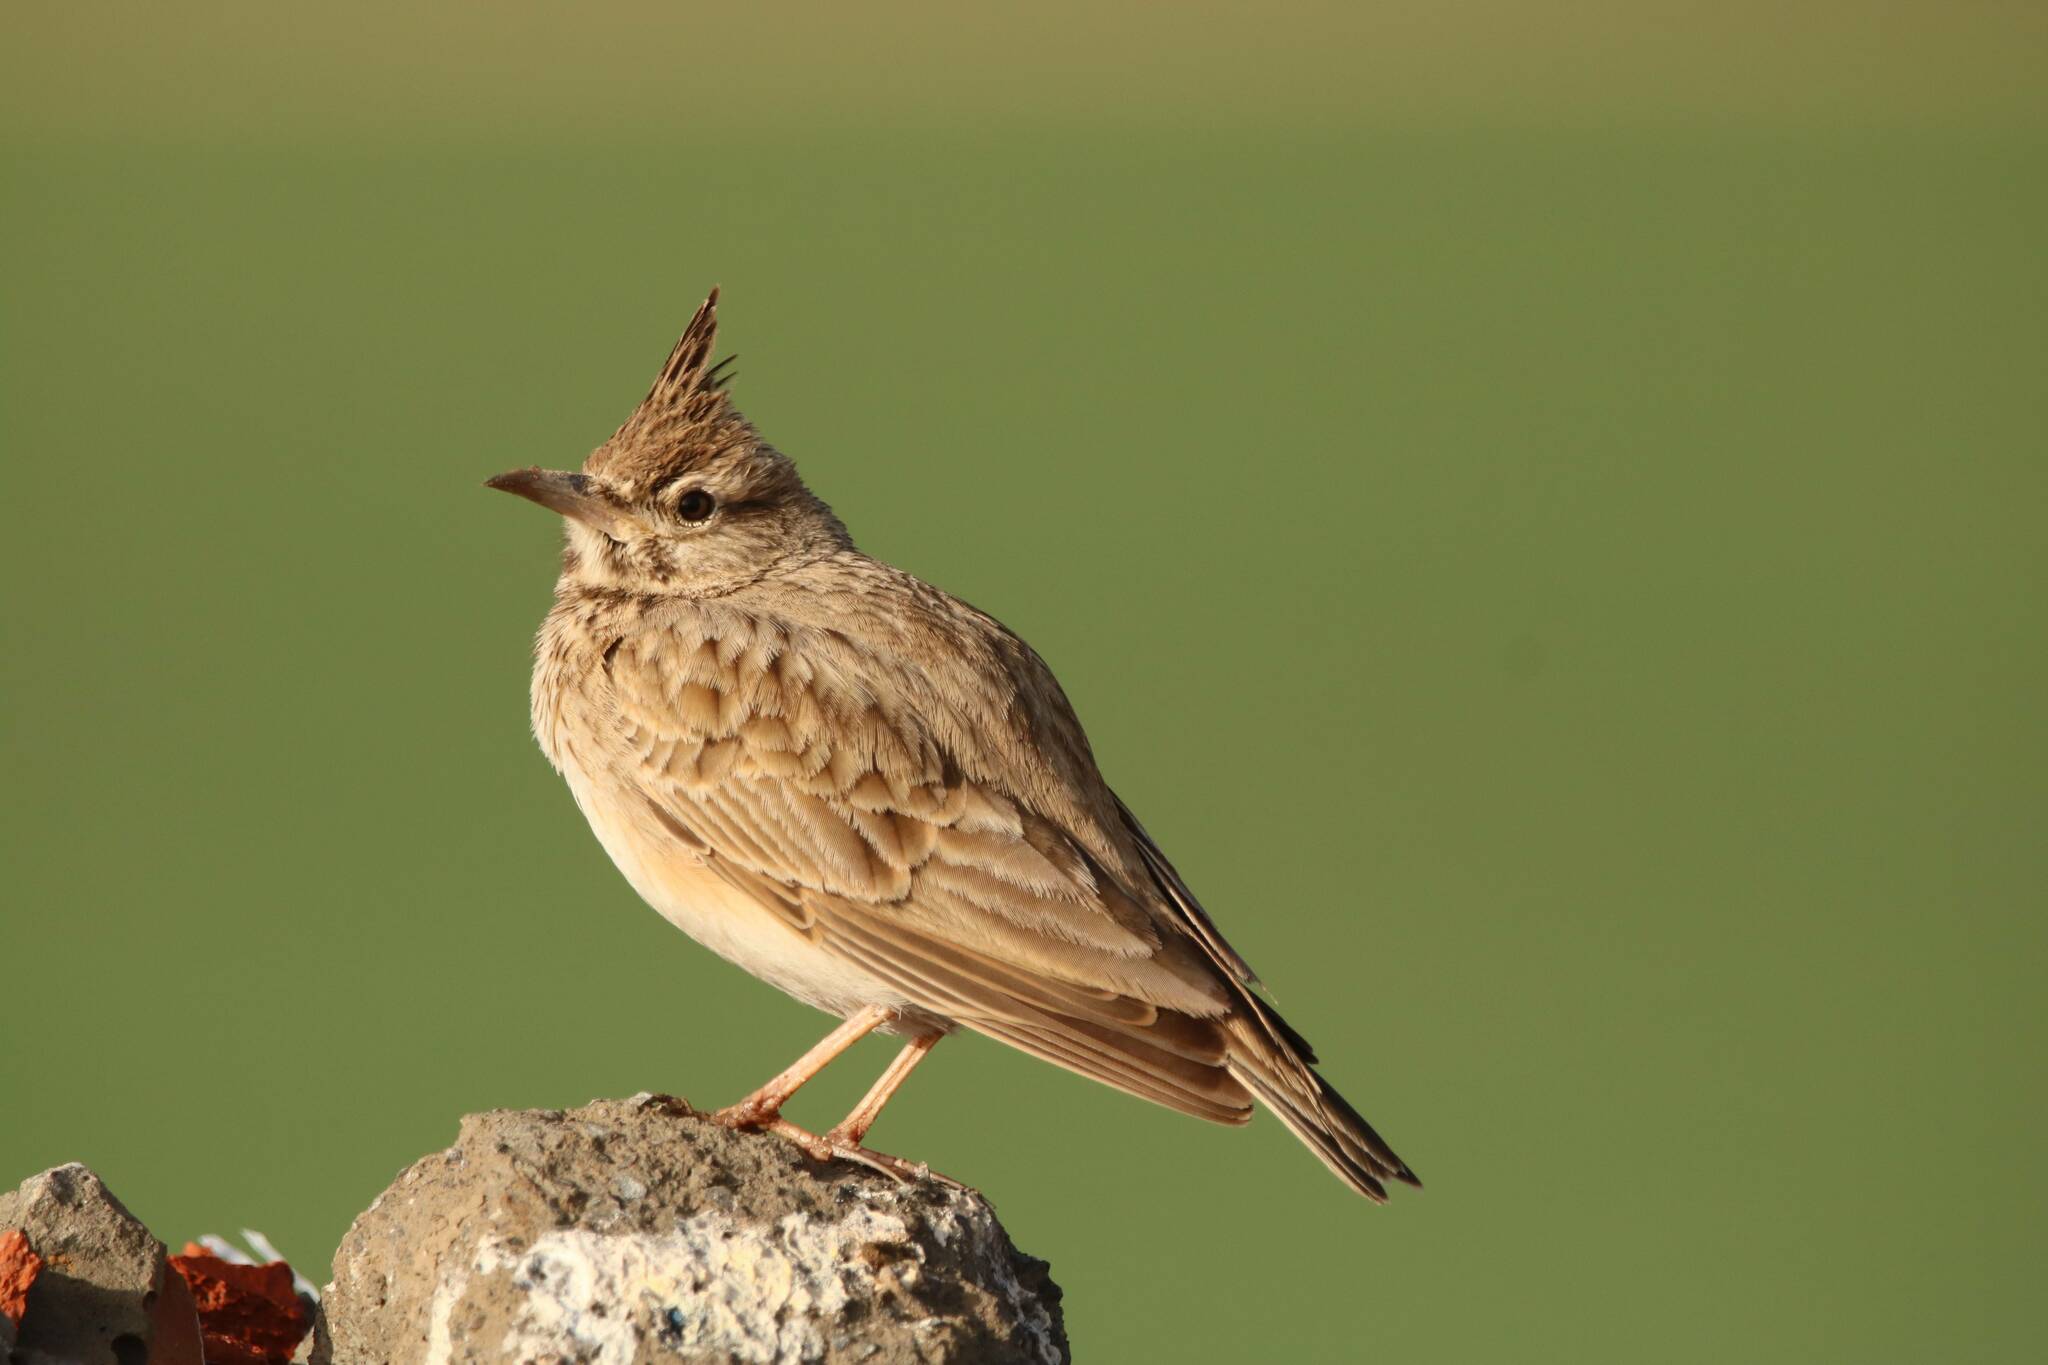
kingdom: Animalia
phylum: Chordata
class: Aves
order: Passeriformes
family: Alaudidae
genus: Galerida
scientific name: Galerida cristata
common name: Crested lark
